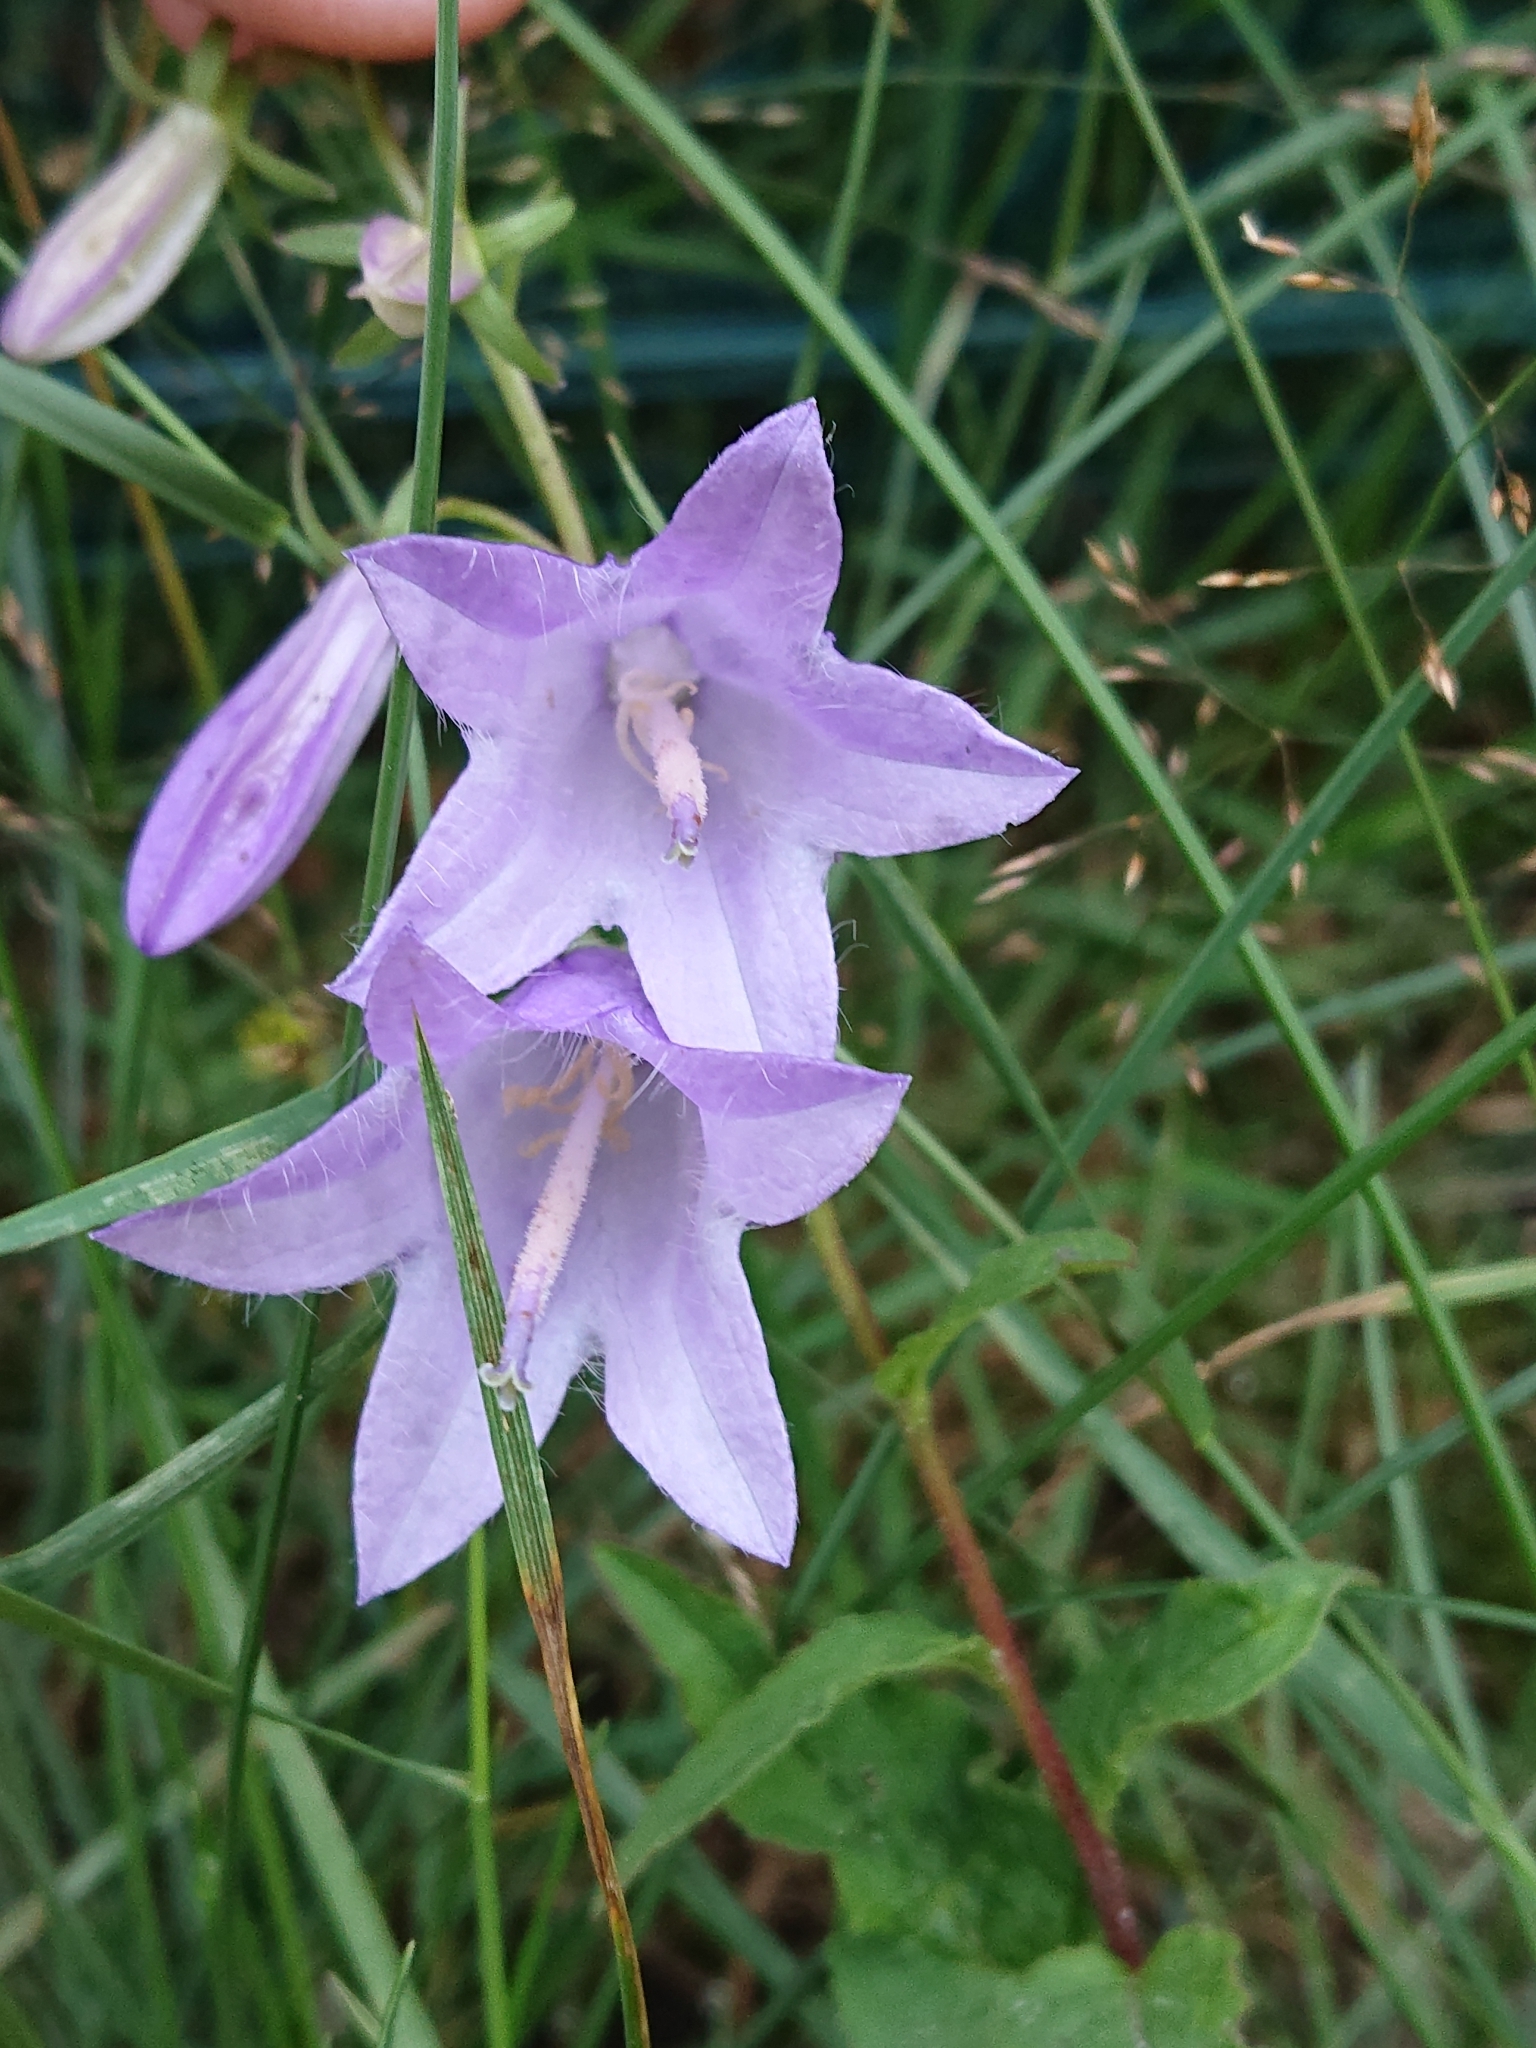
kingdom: Plantae
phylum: Tracheophyta
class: Magnoliopsida
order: Asterales
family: Campanulaceae
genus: Campanula
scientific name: Campanula rapunculoides
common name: Creeping bellflower
